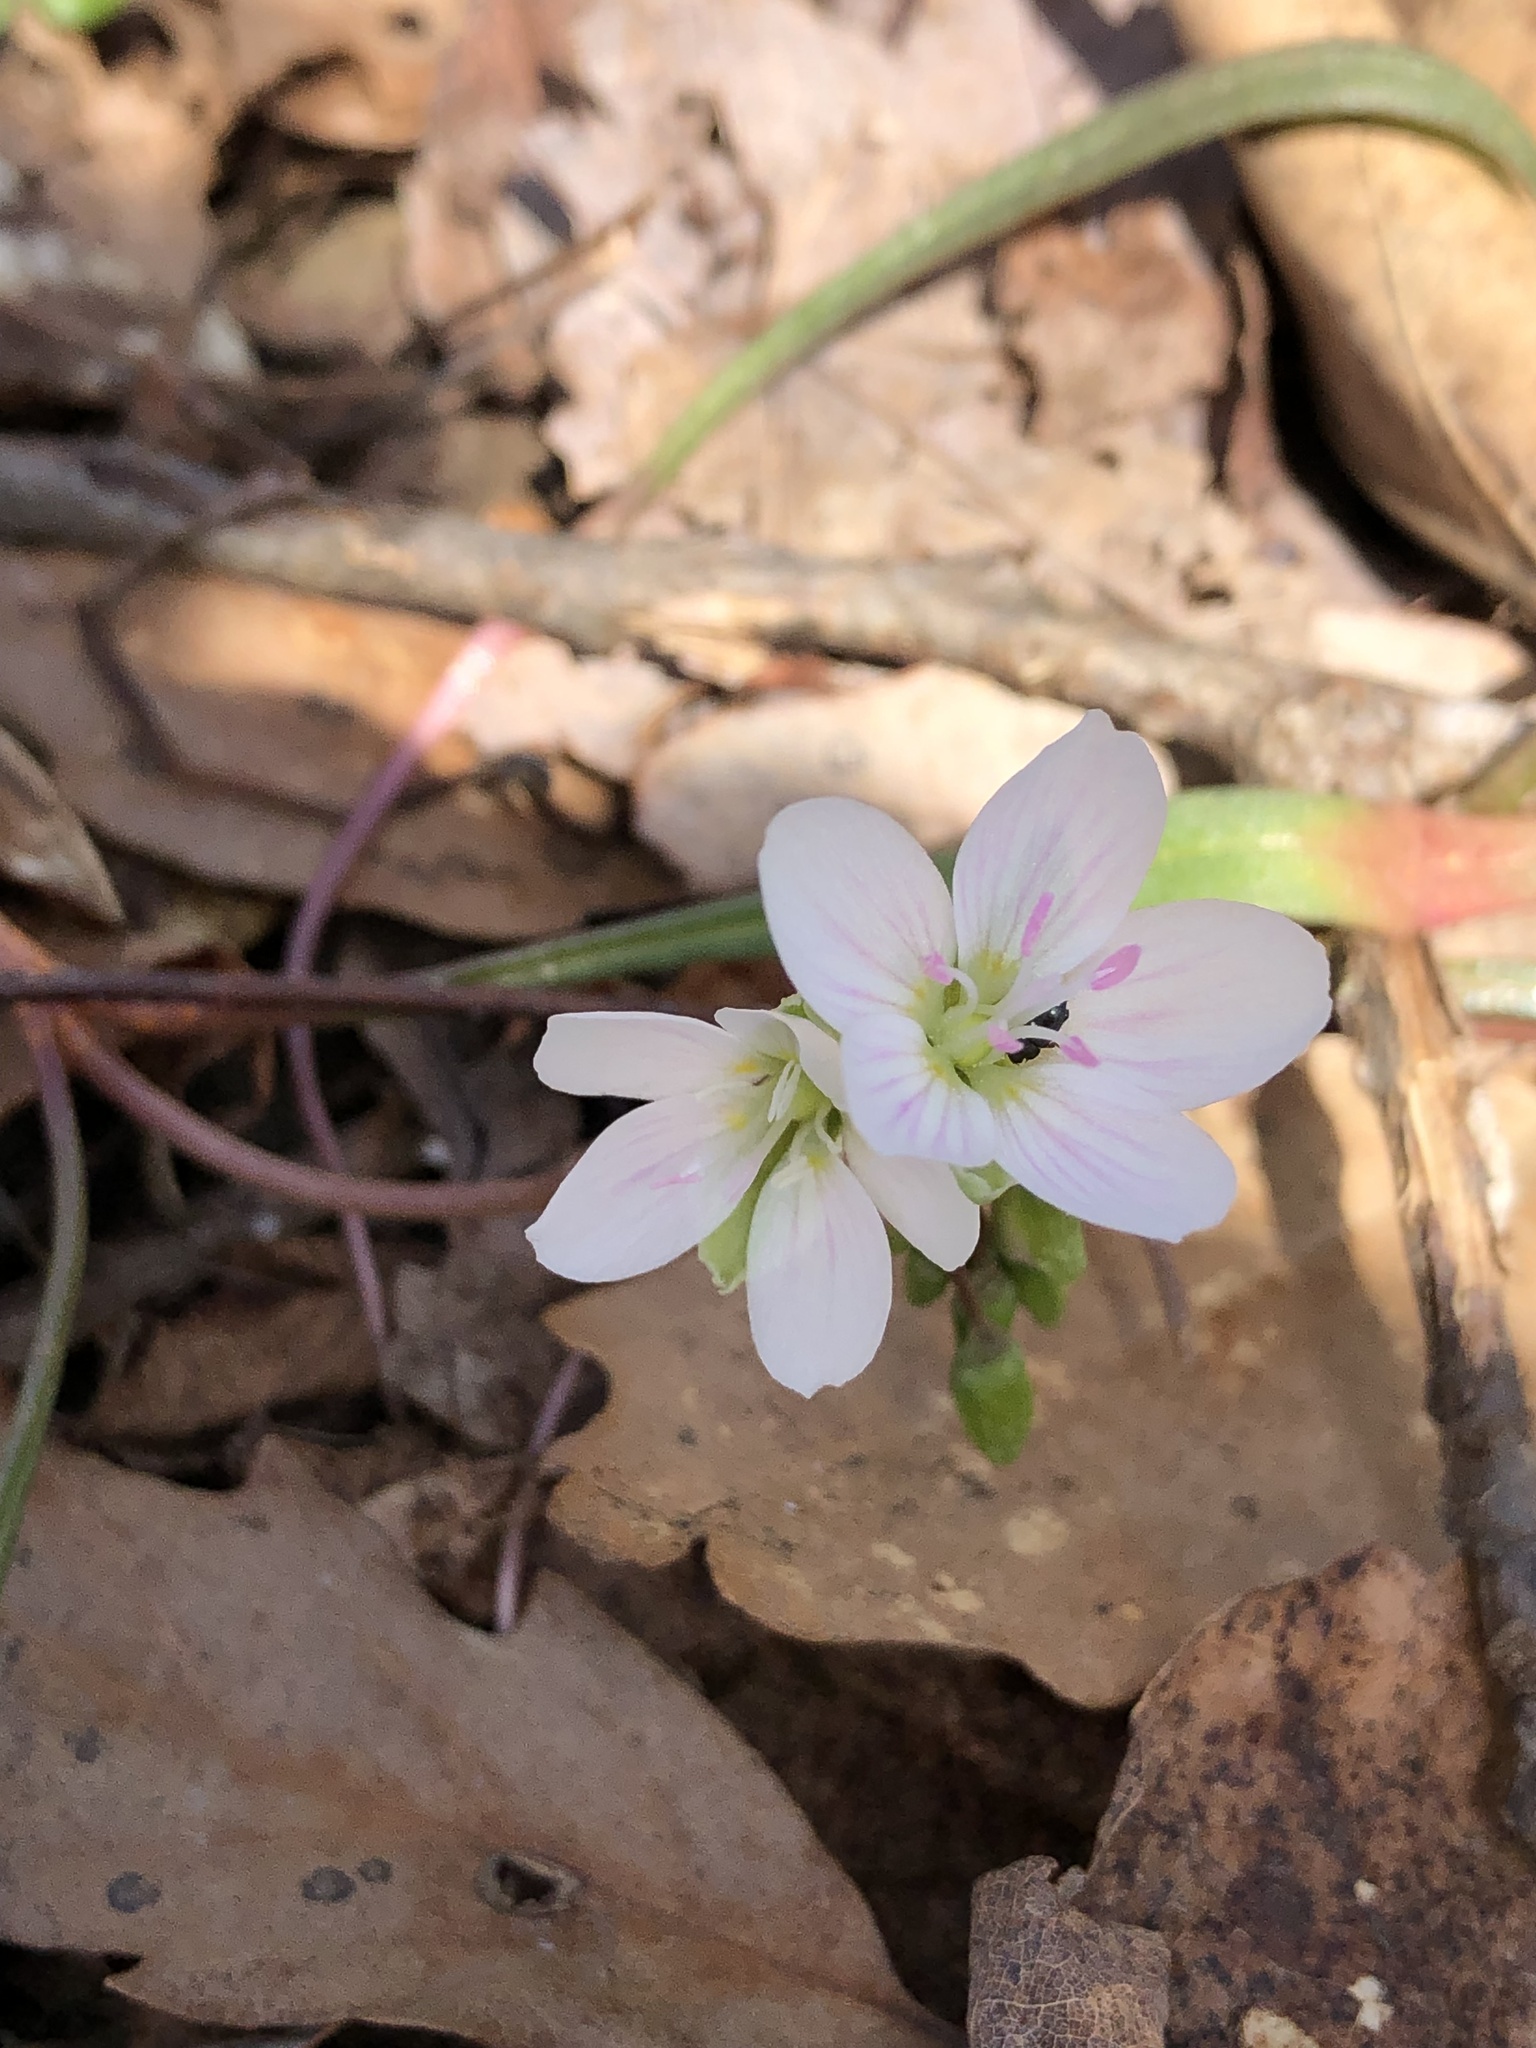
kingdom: Plantae
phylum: Tracheophyta
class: Magnoliopsida
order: Caryophyllales
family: Montiaceae
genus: Claytonia
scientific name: Claytonia virginica
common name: Virginia springbeauty
